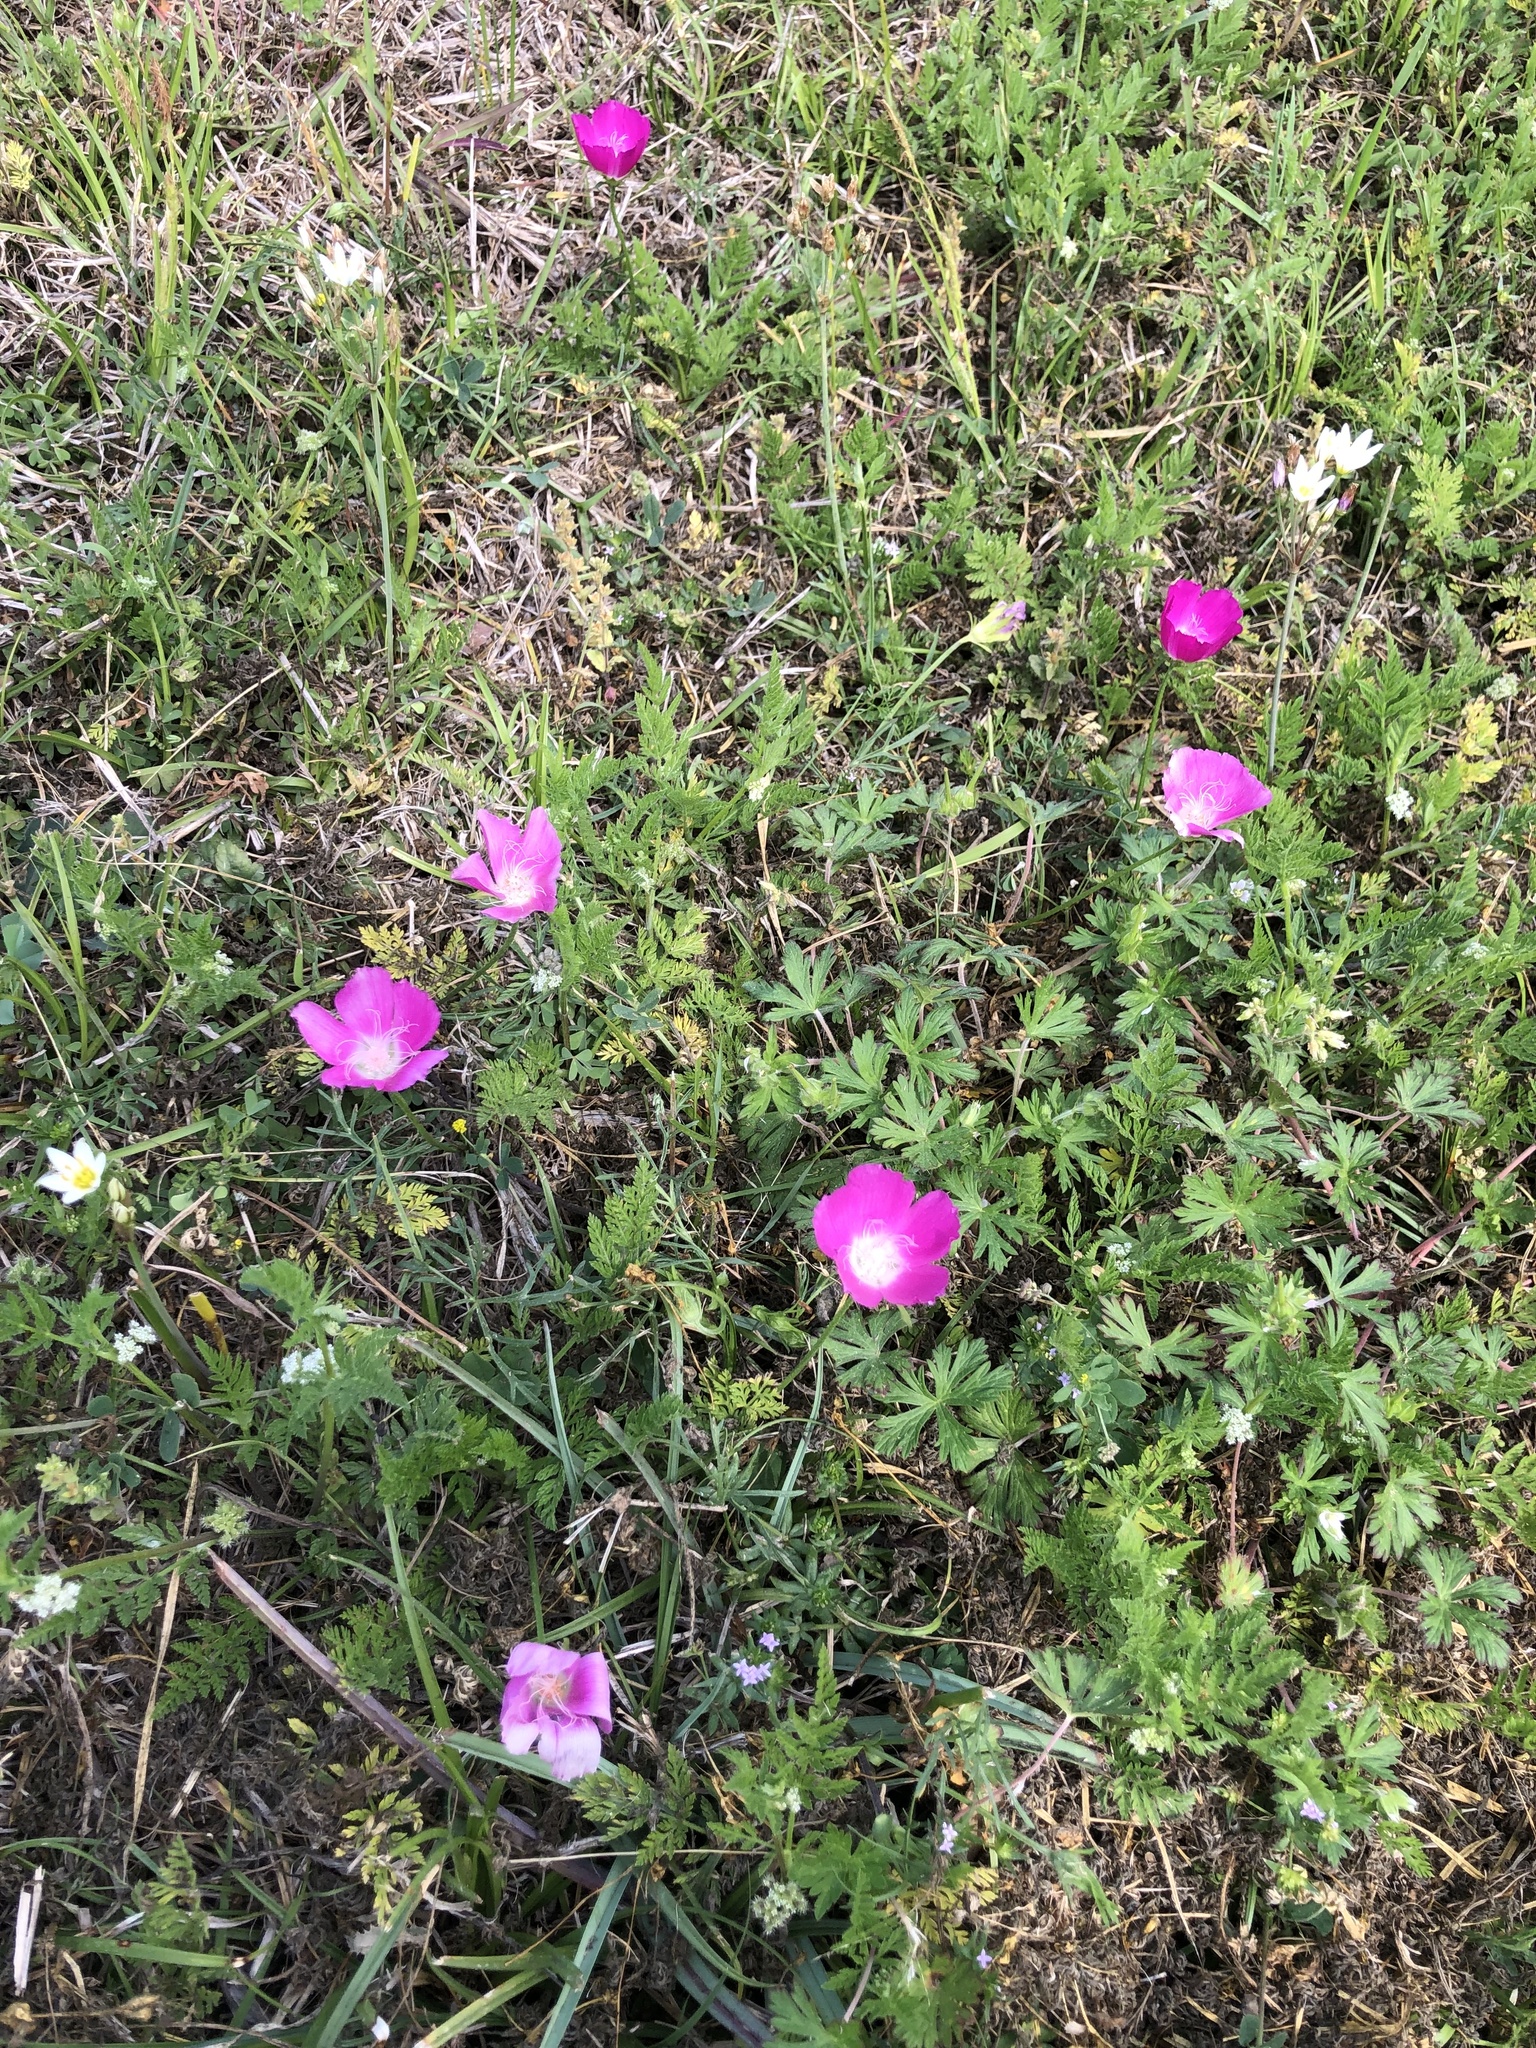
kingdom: Plantae
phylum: Tracheophyta
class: Magnoliopsida
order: Malvales
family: Malvaceae
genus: Callirhoe
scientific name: Callirhoe involucrata
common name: Purple poppy-mallow
